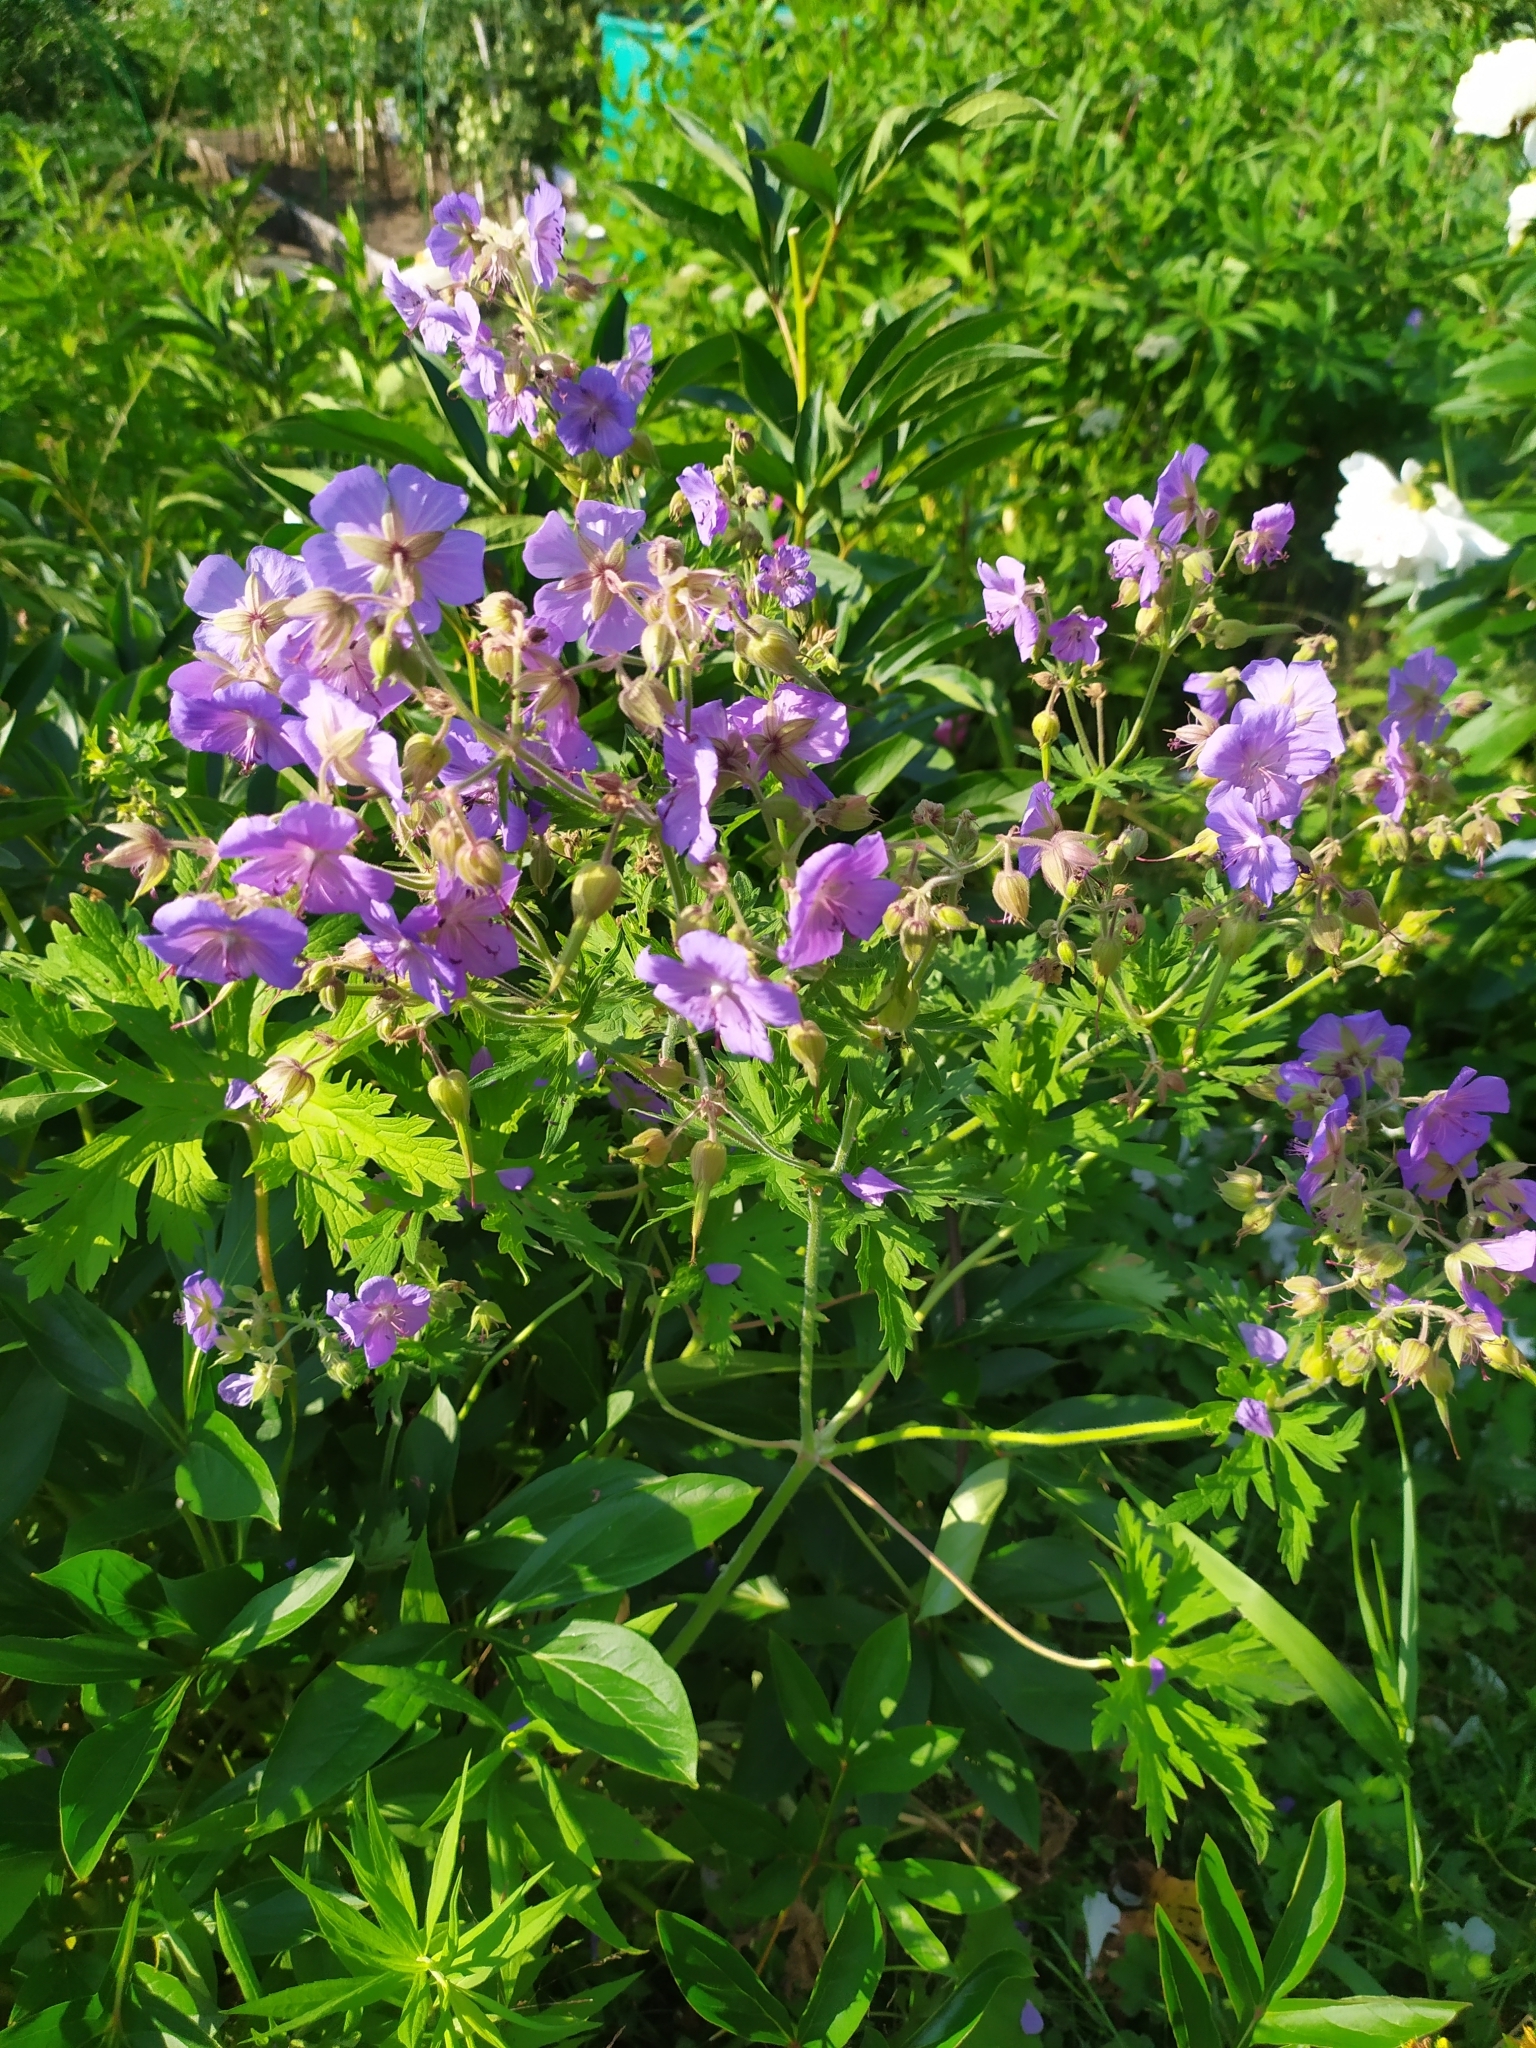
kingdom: Plantae
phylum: Tracheophyta
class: Magnoliopsida
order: Geraniales
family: Geraniaceae
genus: Geranium
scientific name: Geranium pratense
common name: Meadow crane's-bill
